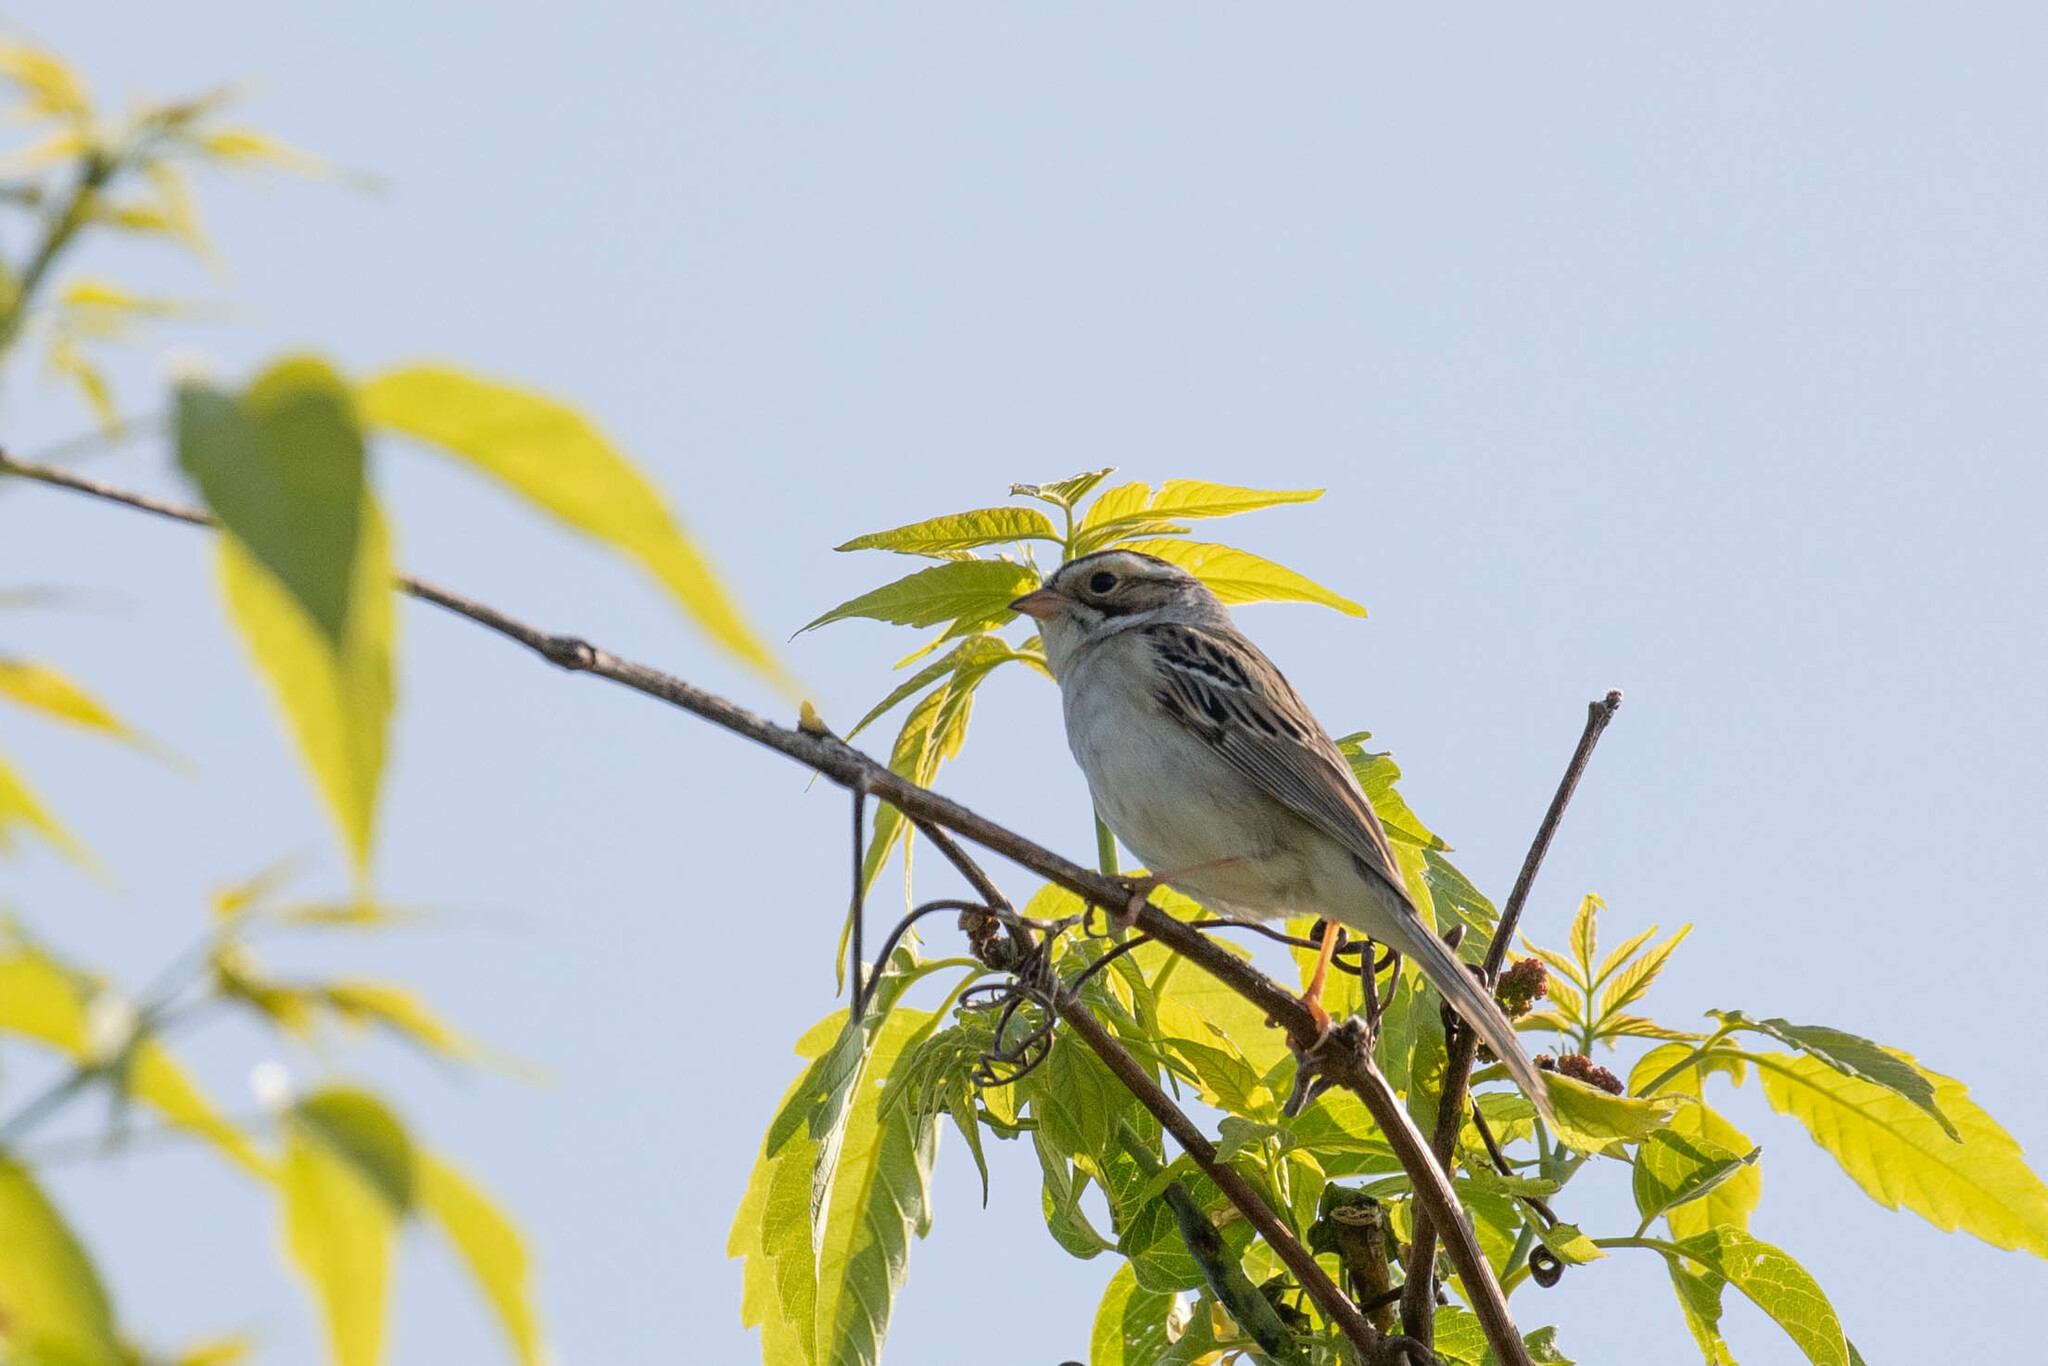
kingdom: Animalia
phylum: Chordata
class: Aves
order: Passeriformes
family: Passerellidae
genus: Spizella
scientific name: Spizella pallida
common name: Clay-colored sparrow
